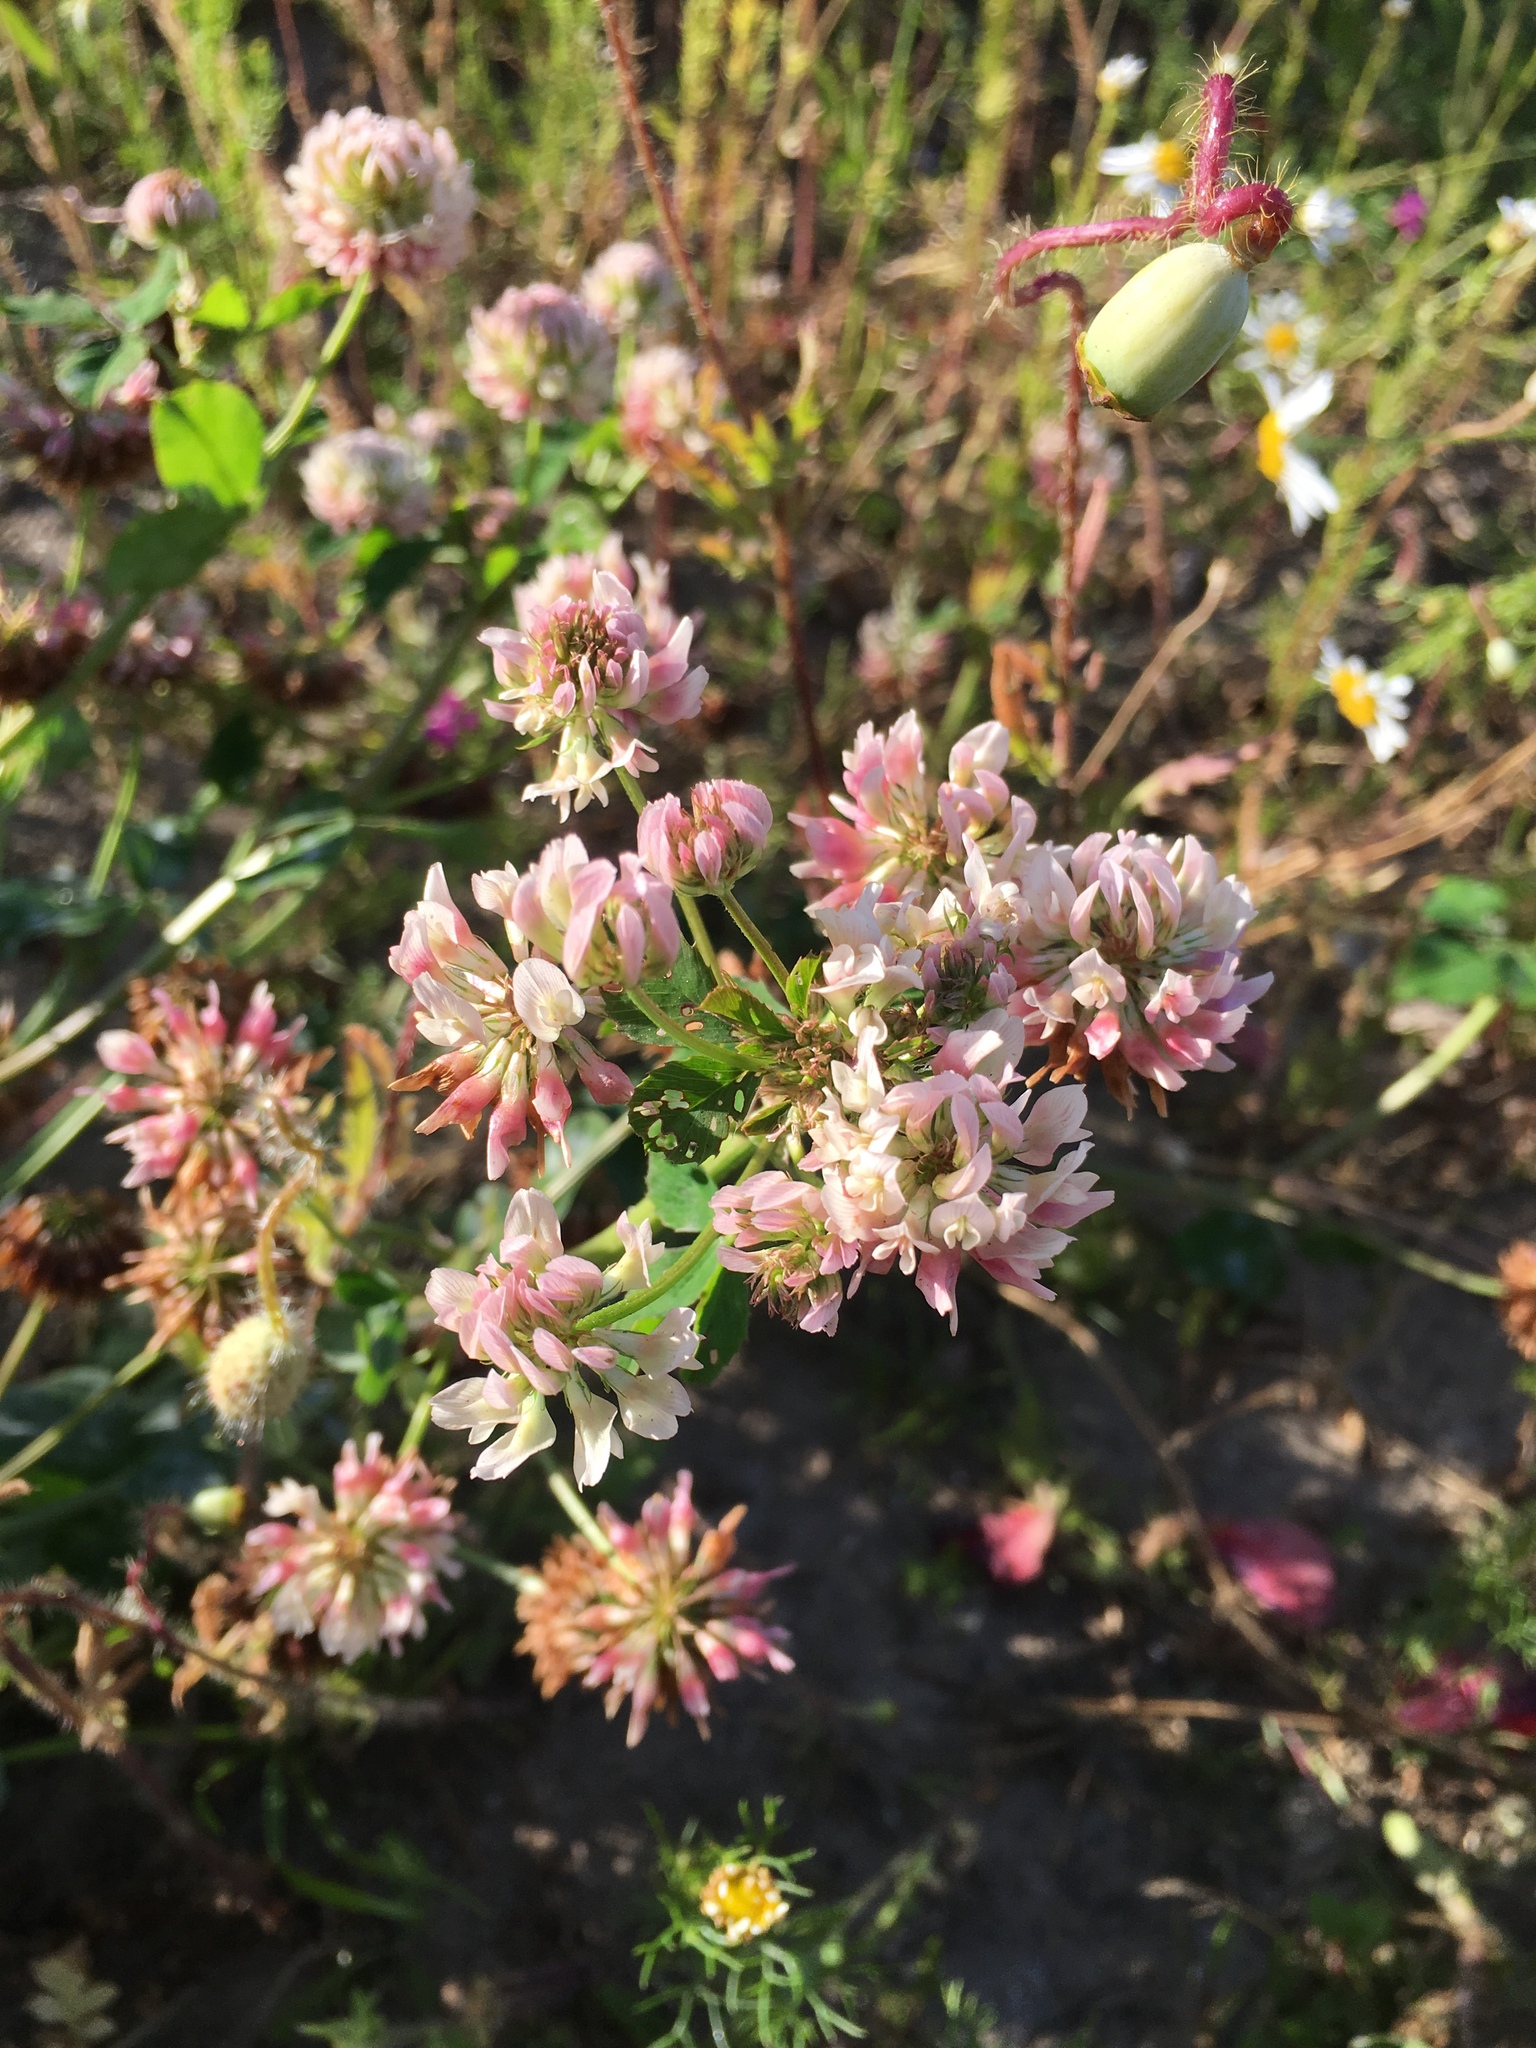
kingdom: Plantae
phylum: Tracheophyta
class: Magnoliopsida
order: Fabales
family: Fabaceae
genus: Trifolium
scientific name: Trifolium hybridum
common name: Alsike clover
